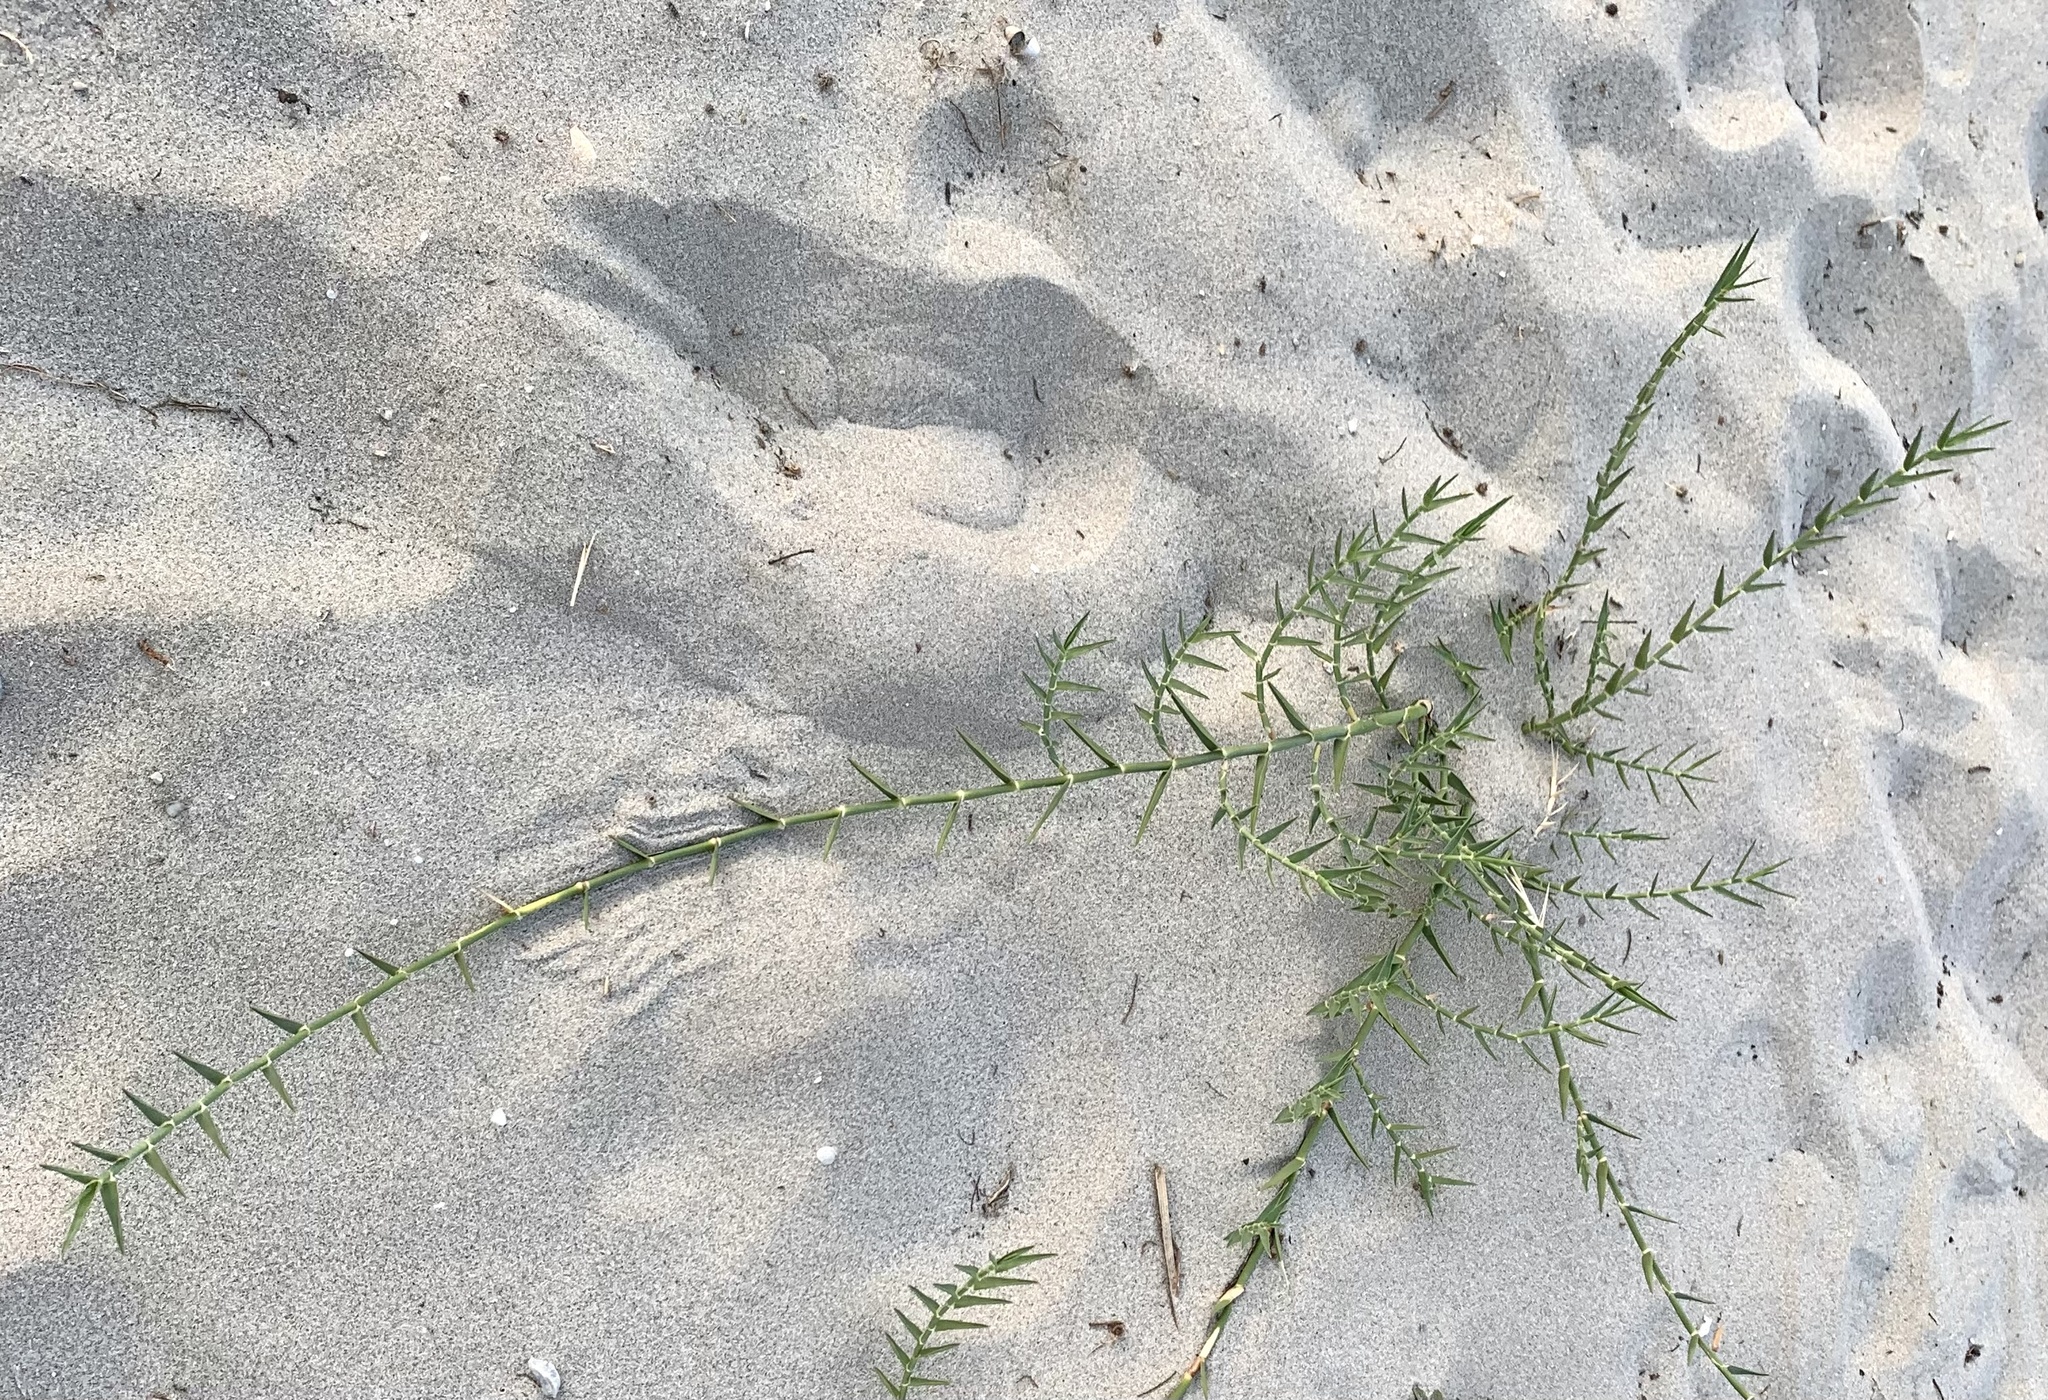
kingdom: Plantae
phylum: Tracheophyta
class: Liliopsida
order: Poales
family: Poaceae
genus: Phragmites
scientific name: Phragmites australis
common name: Common reed
